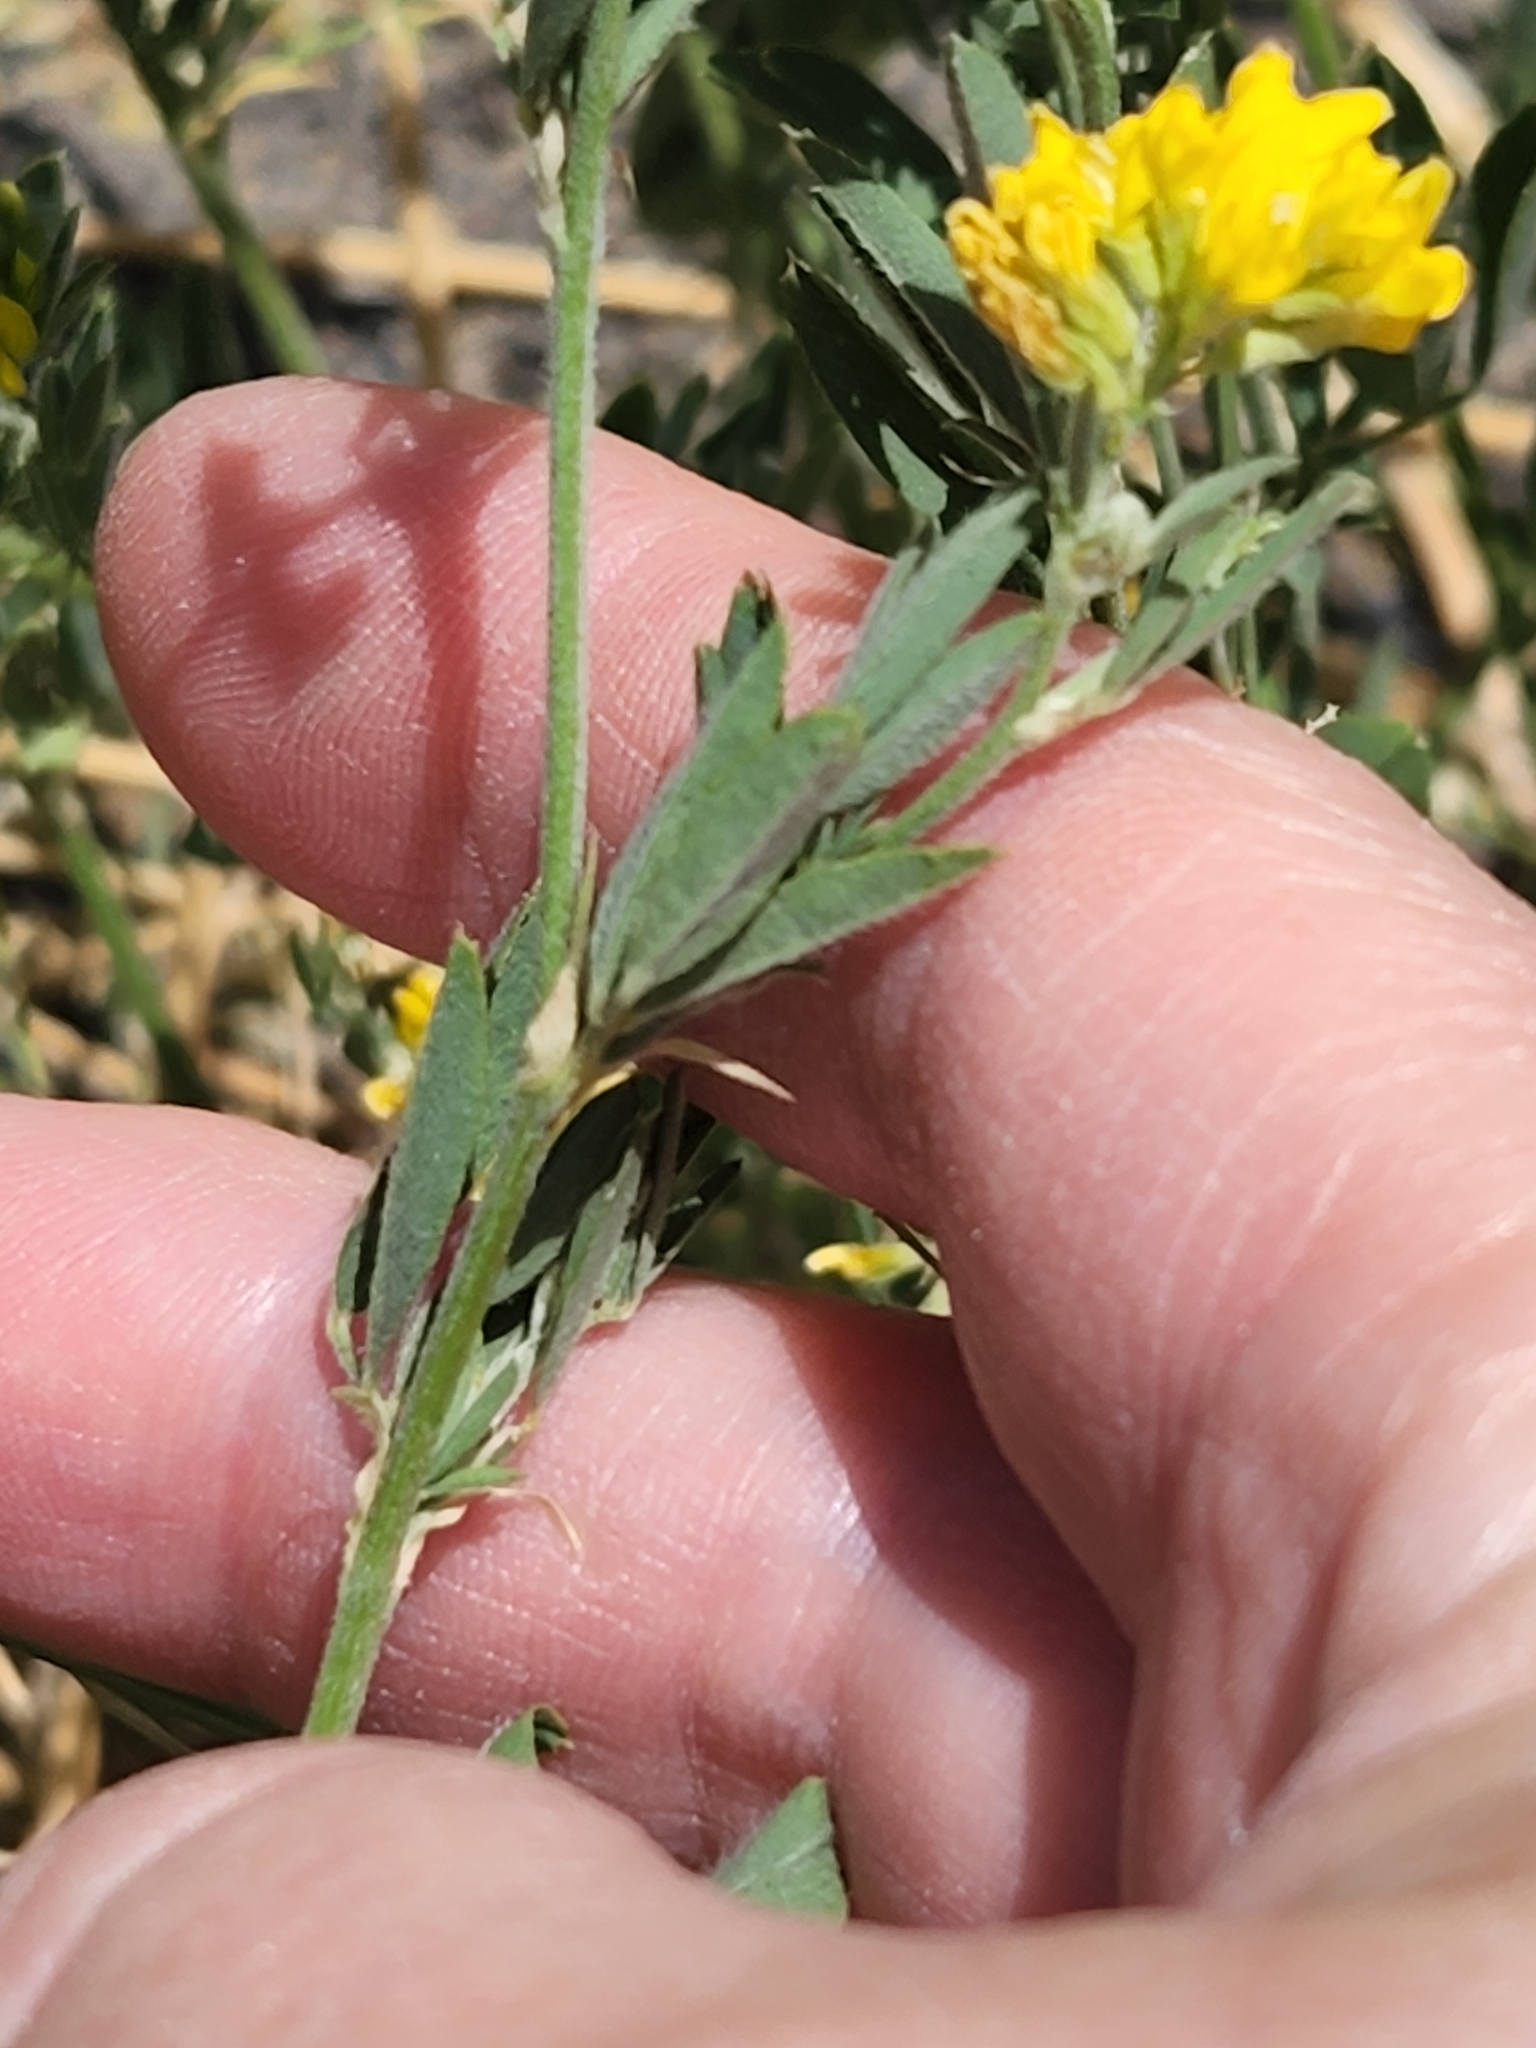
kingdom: Plantae
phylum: Tracheophyta
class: Magnoliopsida
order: Fabales
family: Fabaceae
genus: Medicago
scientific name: Medicago falcata
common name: Sickle medick
